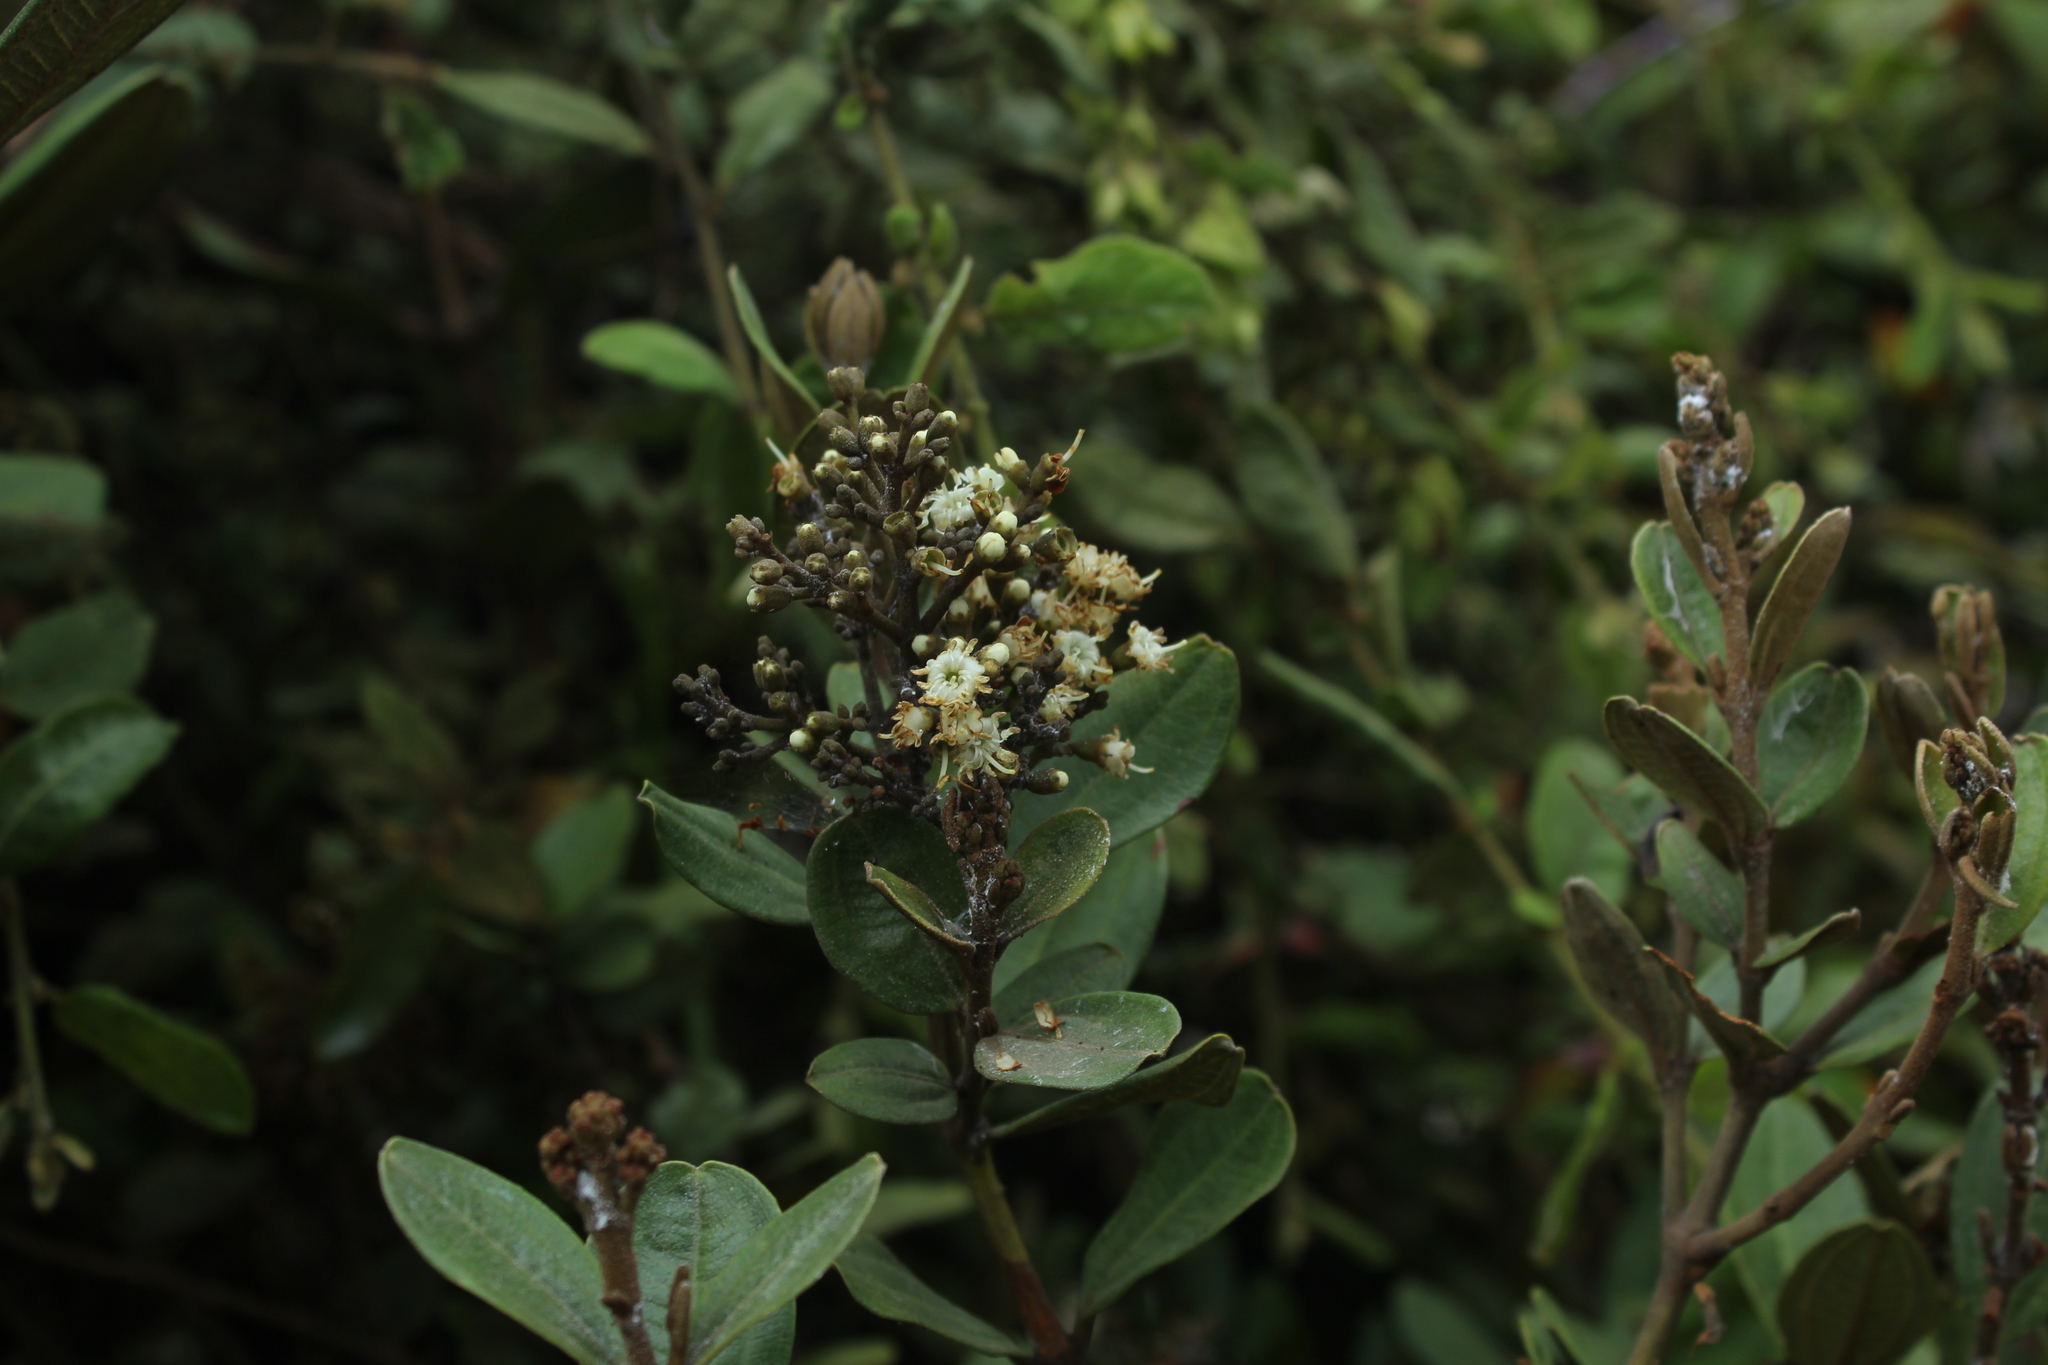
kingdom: Plantae
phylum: Tracheophyta
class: Magnoliopsida
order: Myrtales
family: Melastomataceae
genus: Miconia
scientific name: Miconia squamulosa
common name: Squamulose maya
